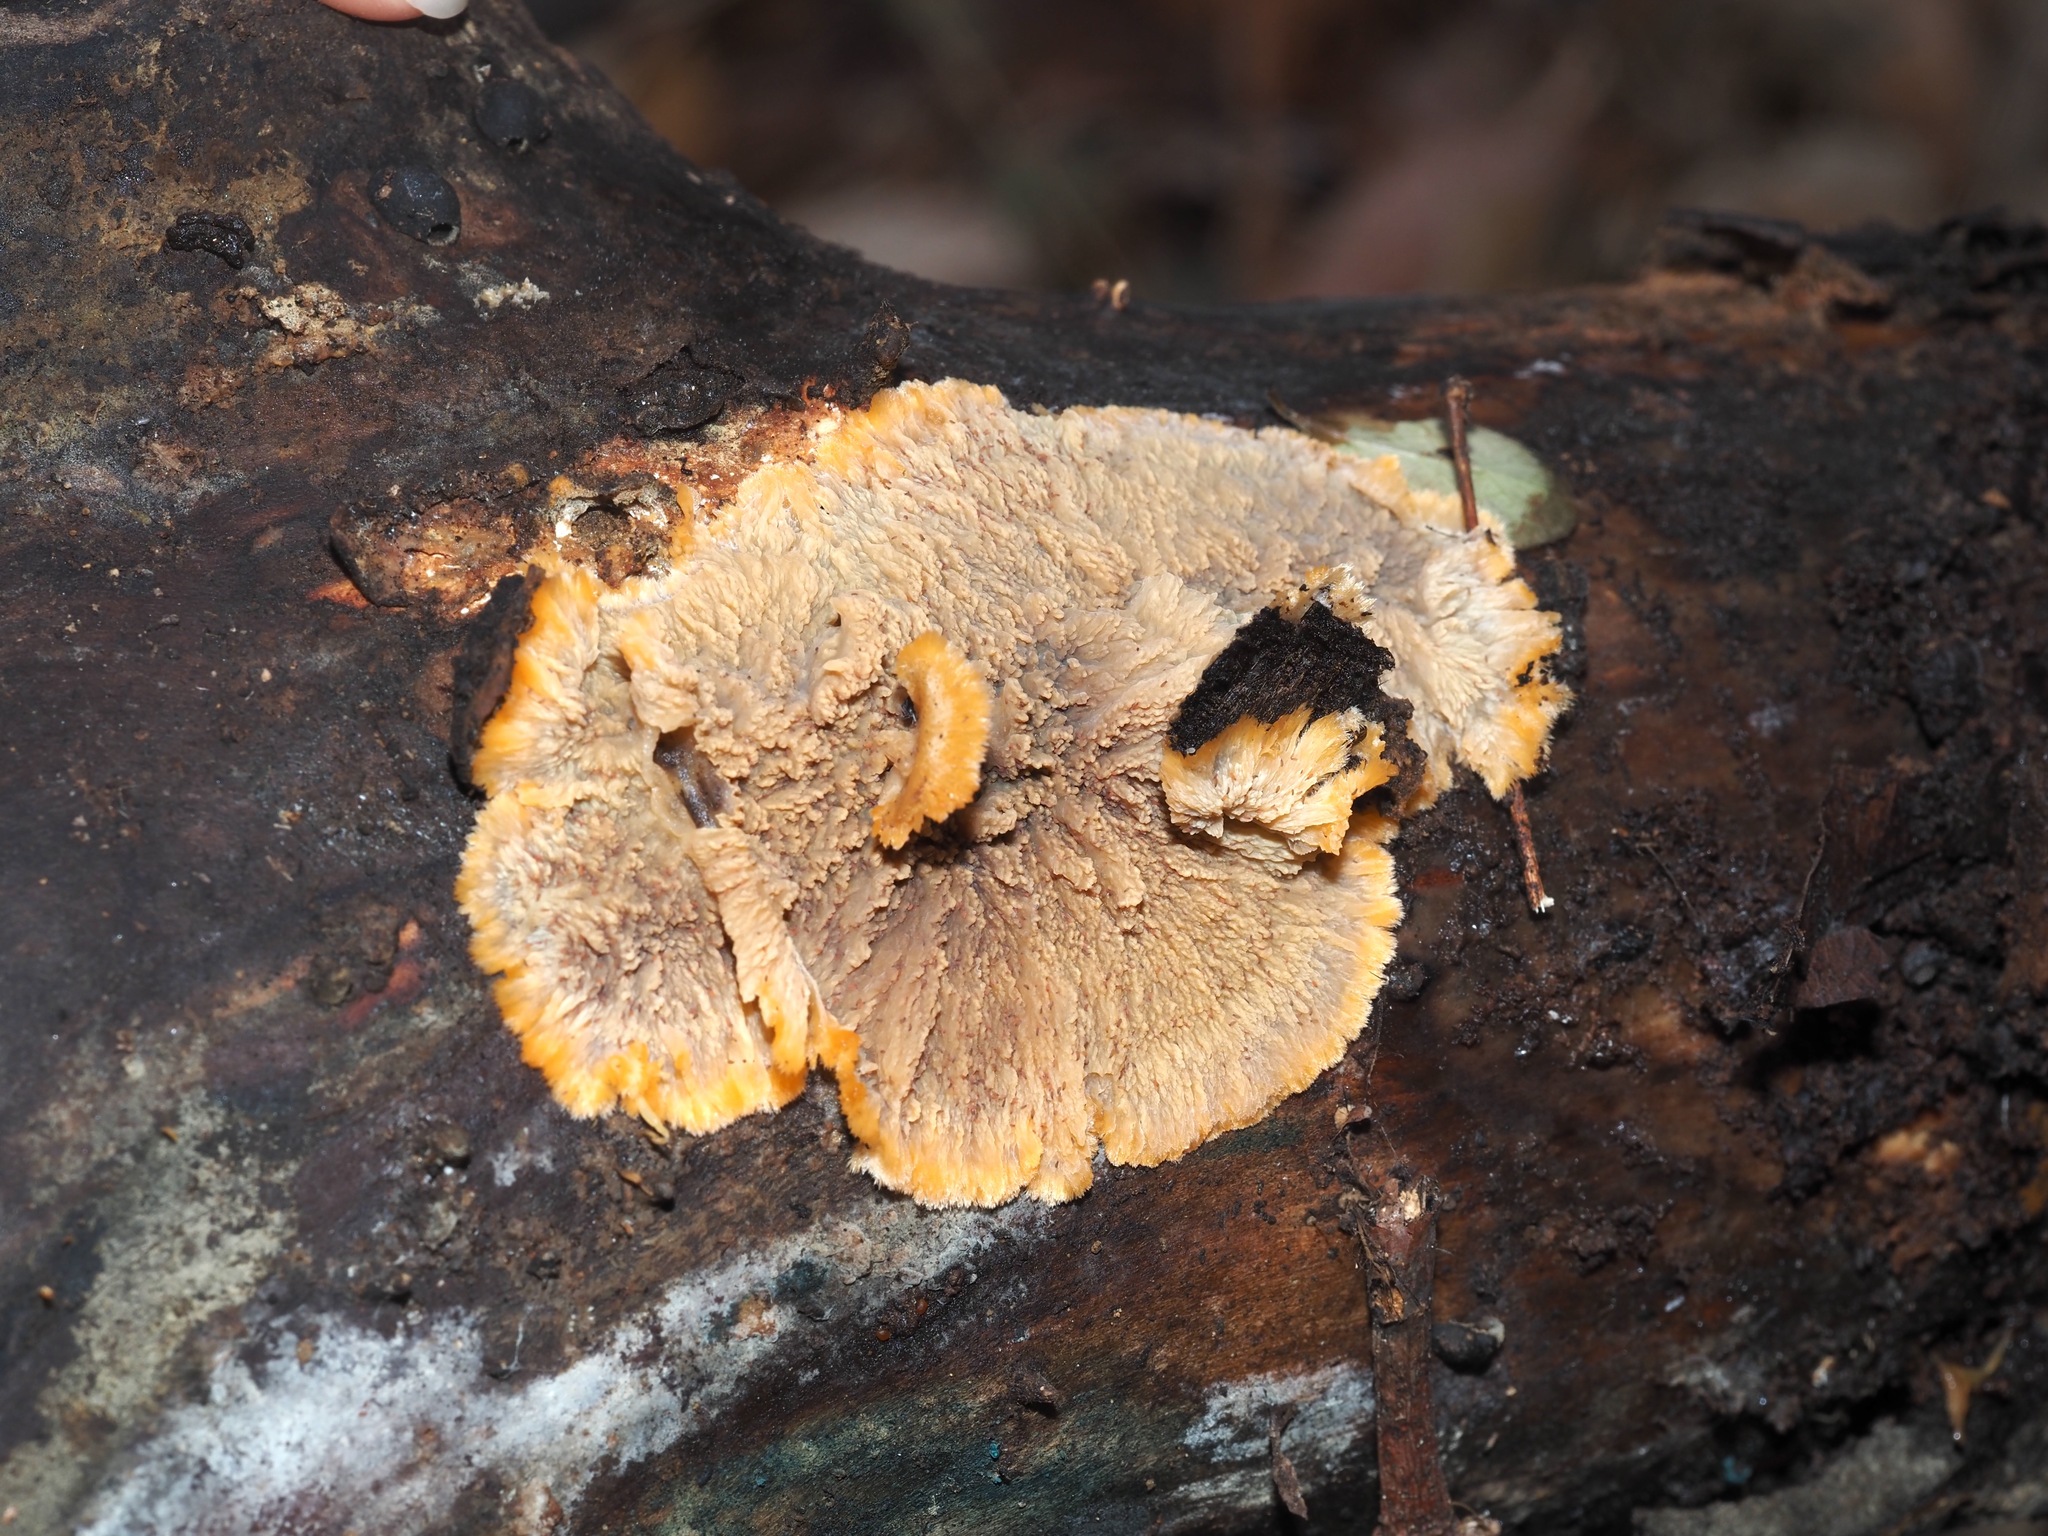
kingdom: Fungi
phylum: Basidiomycota
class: Agaricomycetes
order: Polyporales
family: Meruliaceae
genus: Phlebia
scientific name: Phlebia radiata
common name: Wrinkled crust
